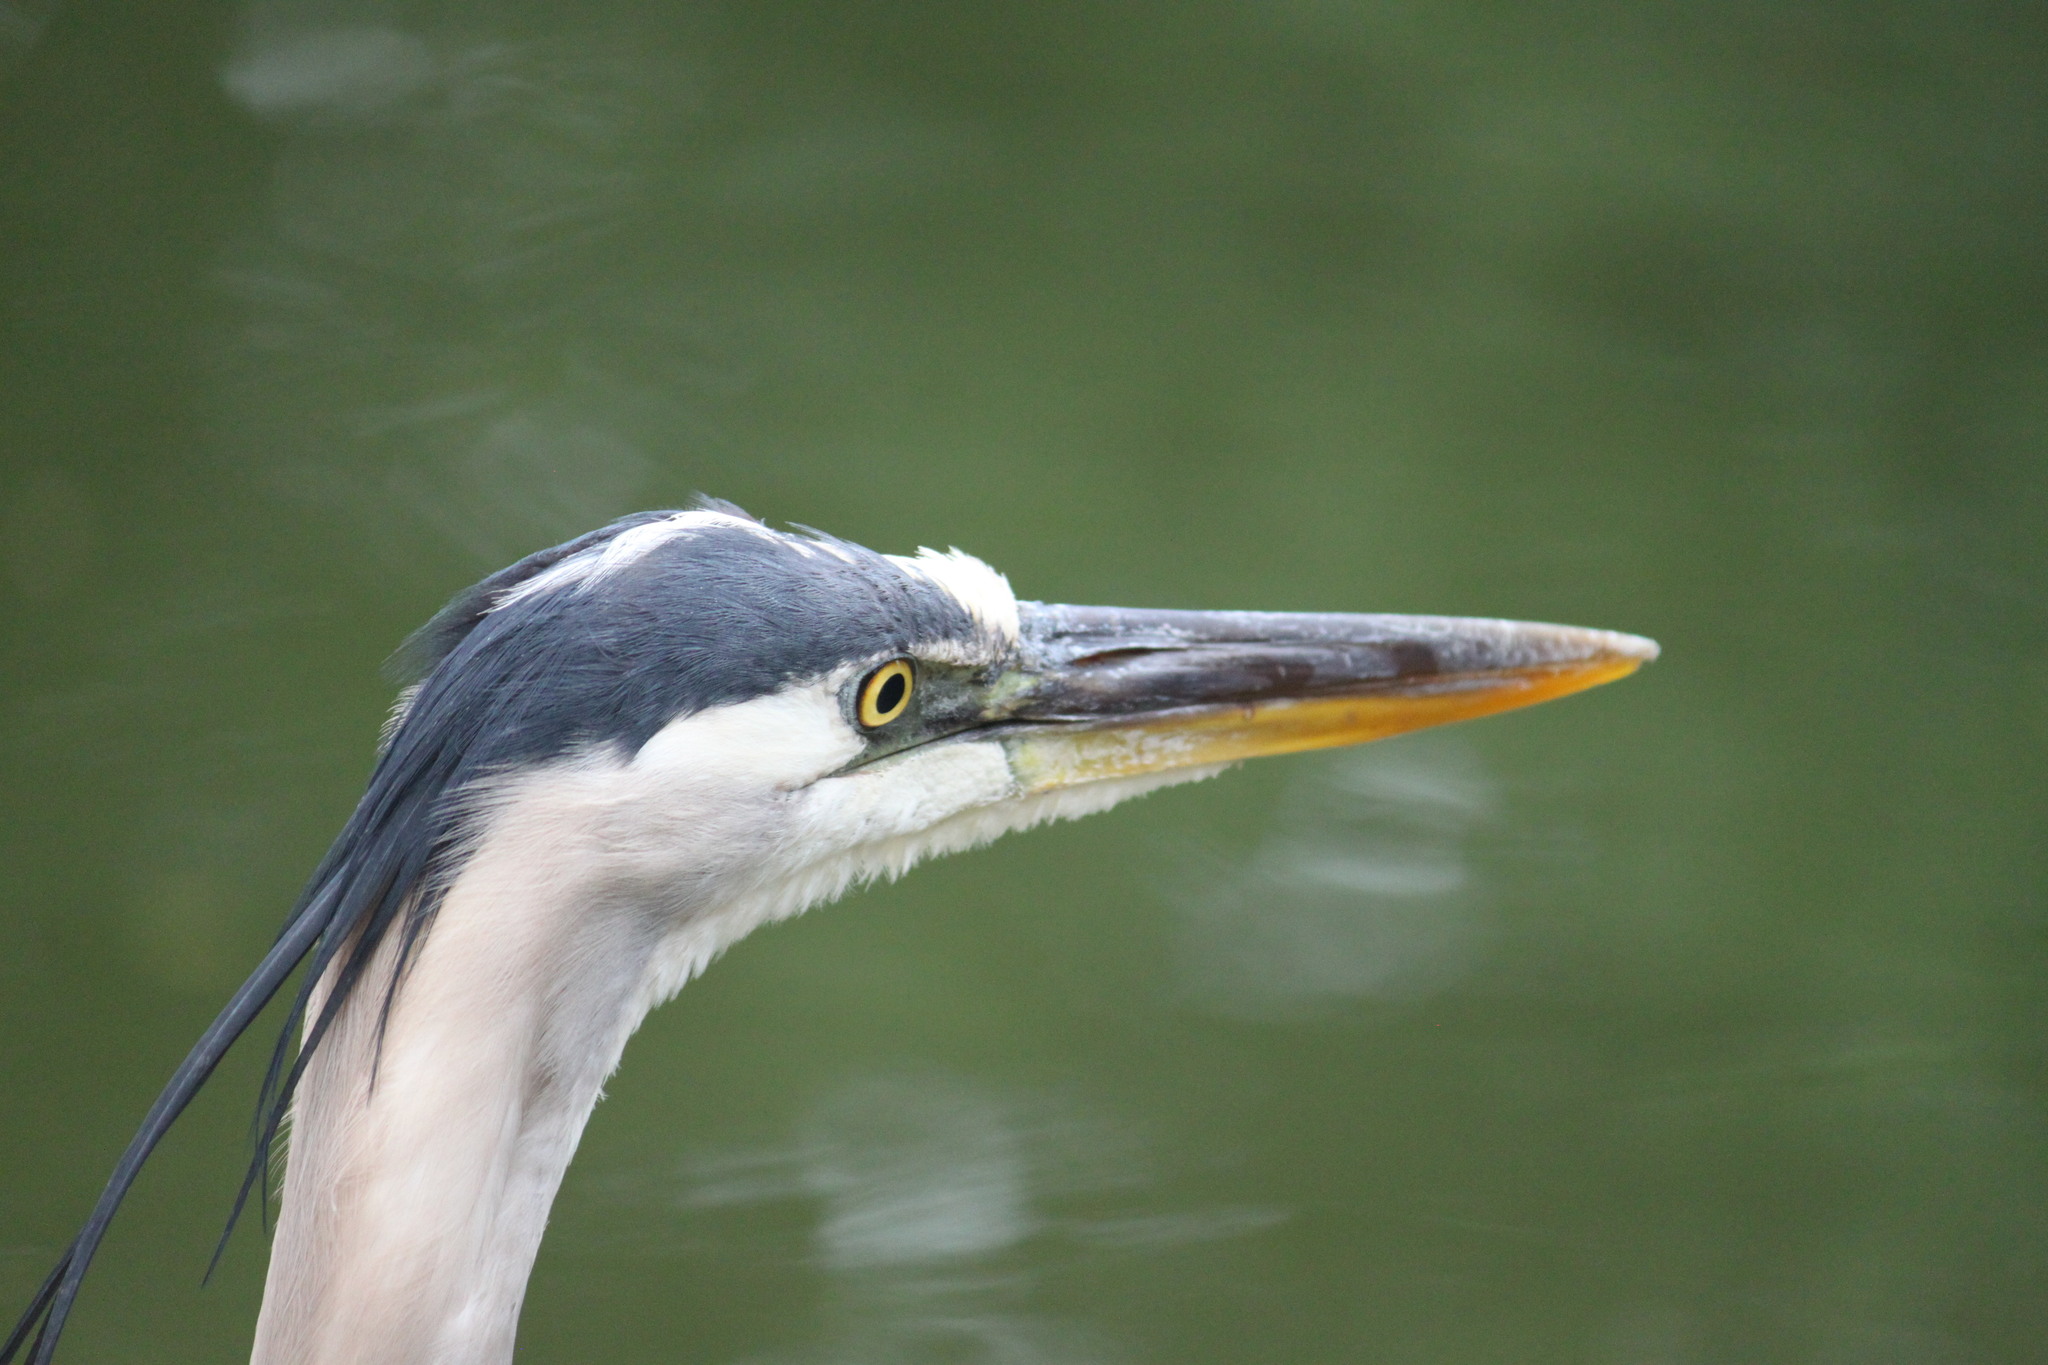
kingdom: Animalia
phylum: Chordata
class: Aves
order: Pelecaniformes
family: Ardeidae
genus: Ardea
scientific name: Ardea herodias
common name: Great blue heron
